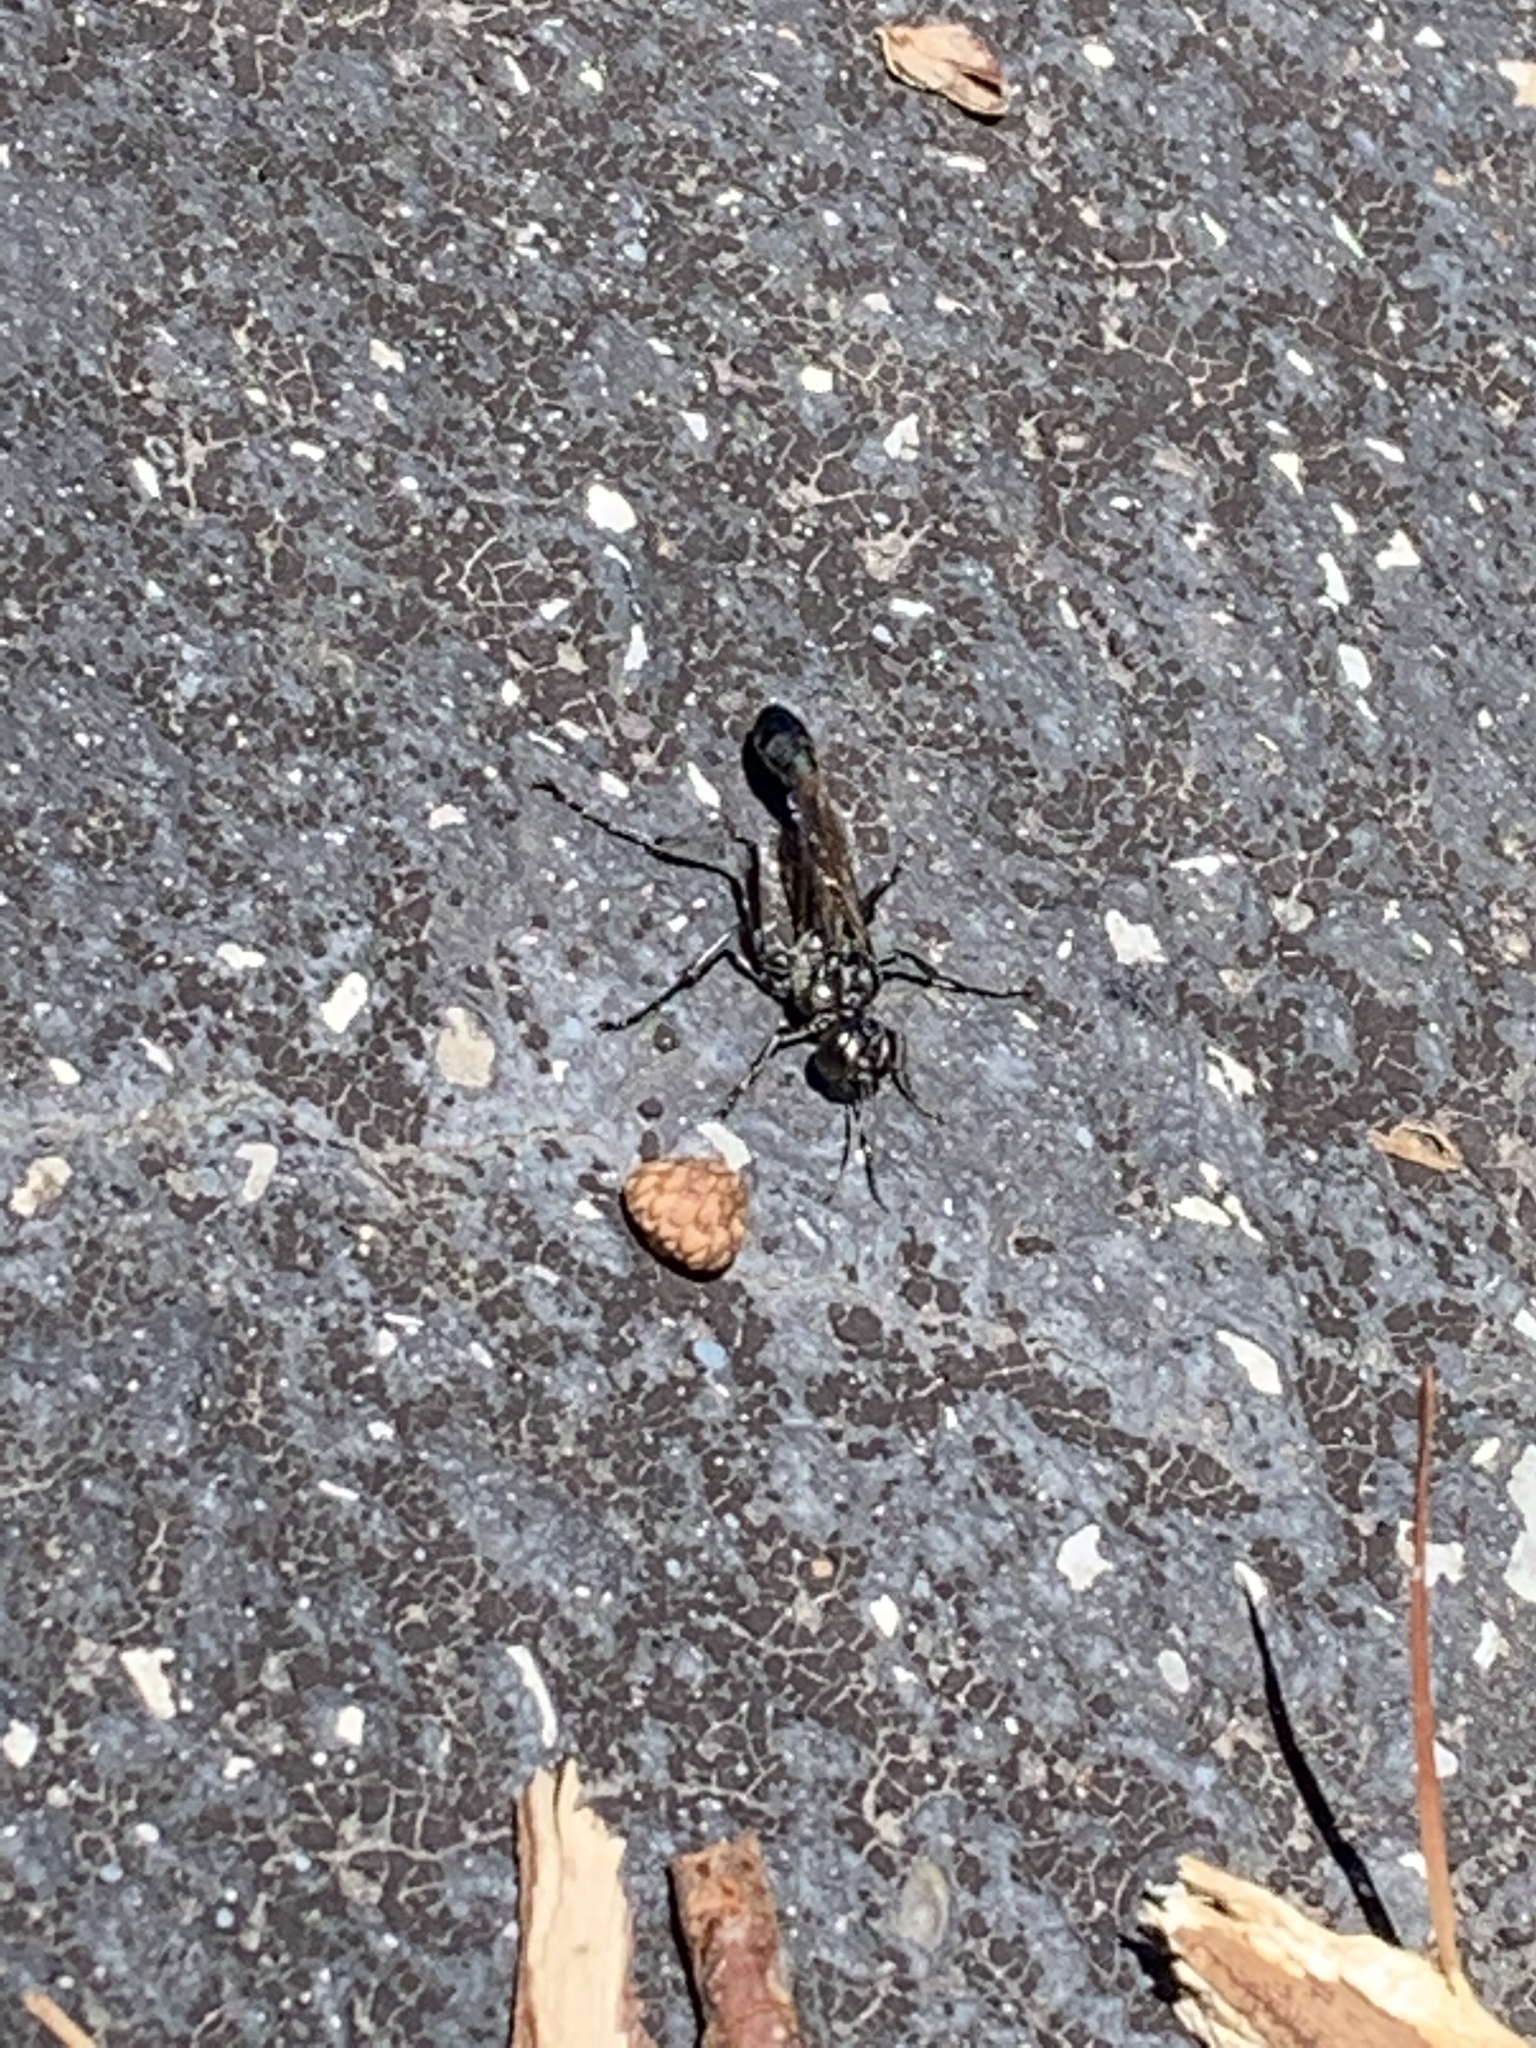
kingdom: Animalia
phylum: Arthropoda
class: Insecta
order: Hymenoptera
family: Sphecidae
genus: Eremnophila
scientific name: Eremnophila aureonotata
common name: Gold-marked thread-waisted wasp
